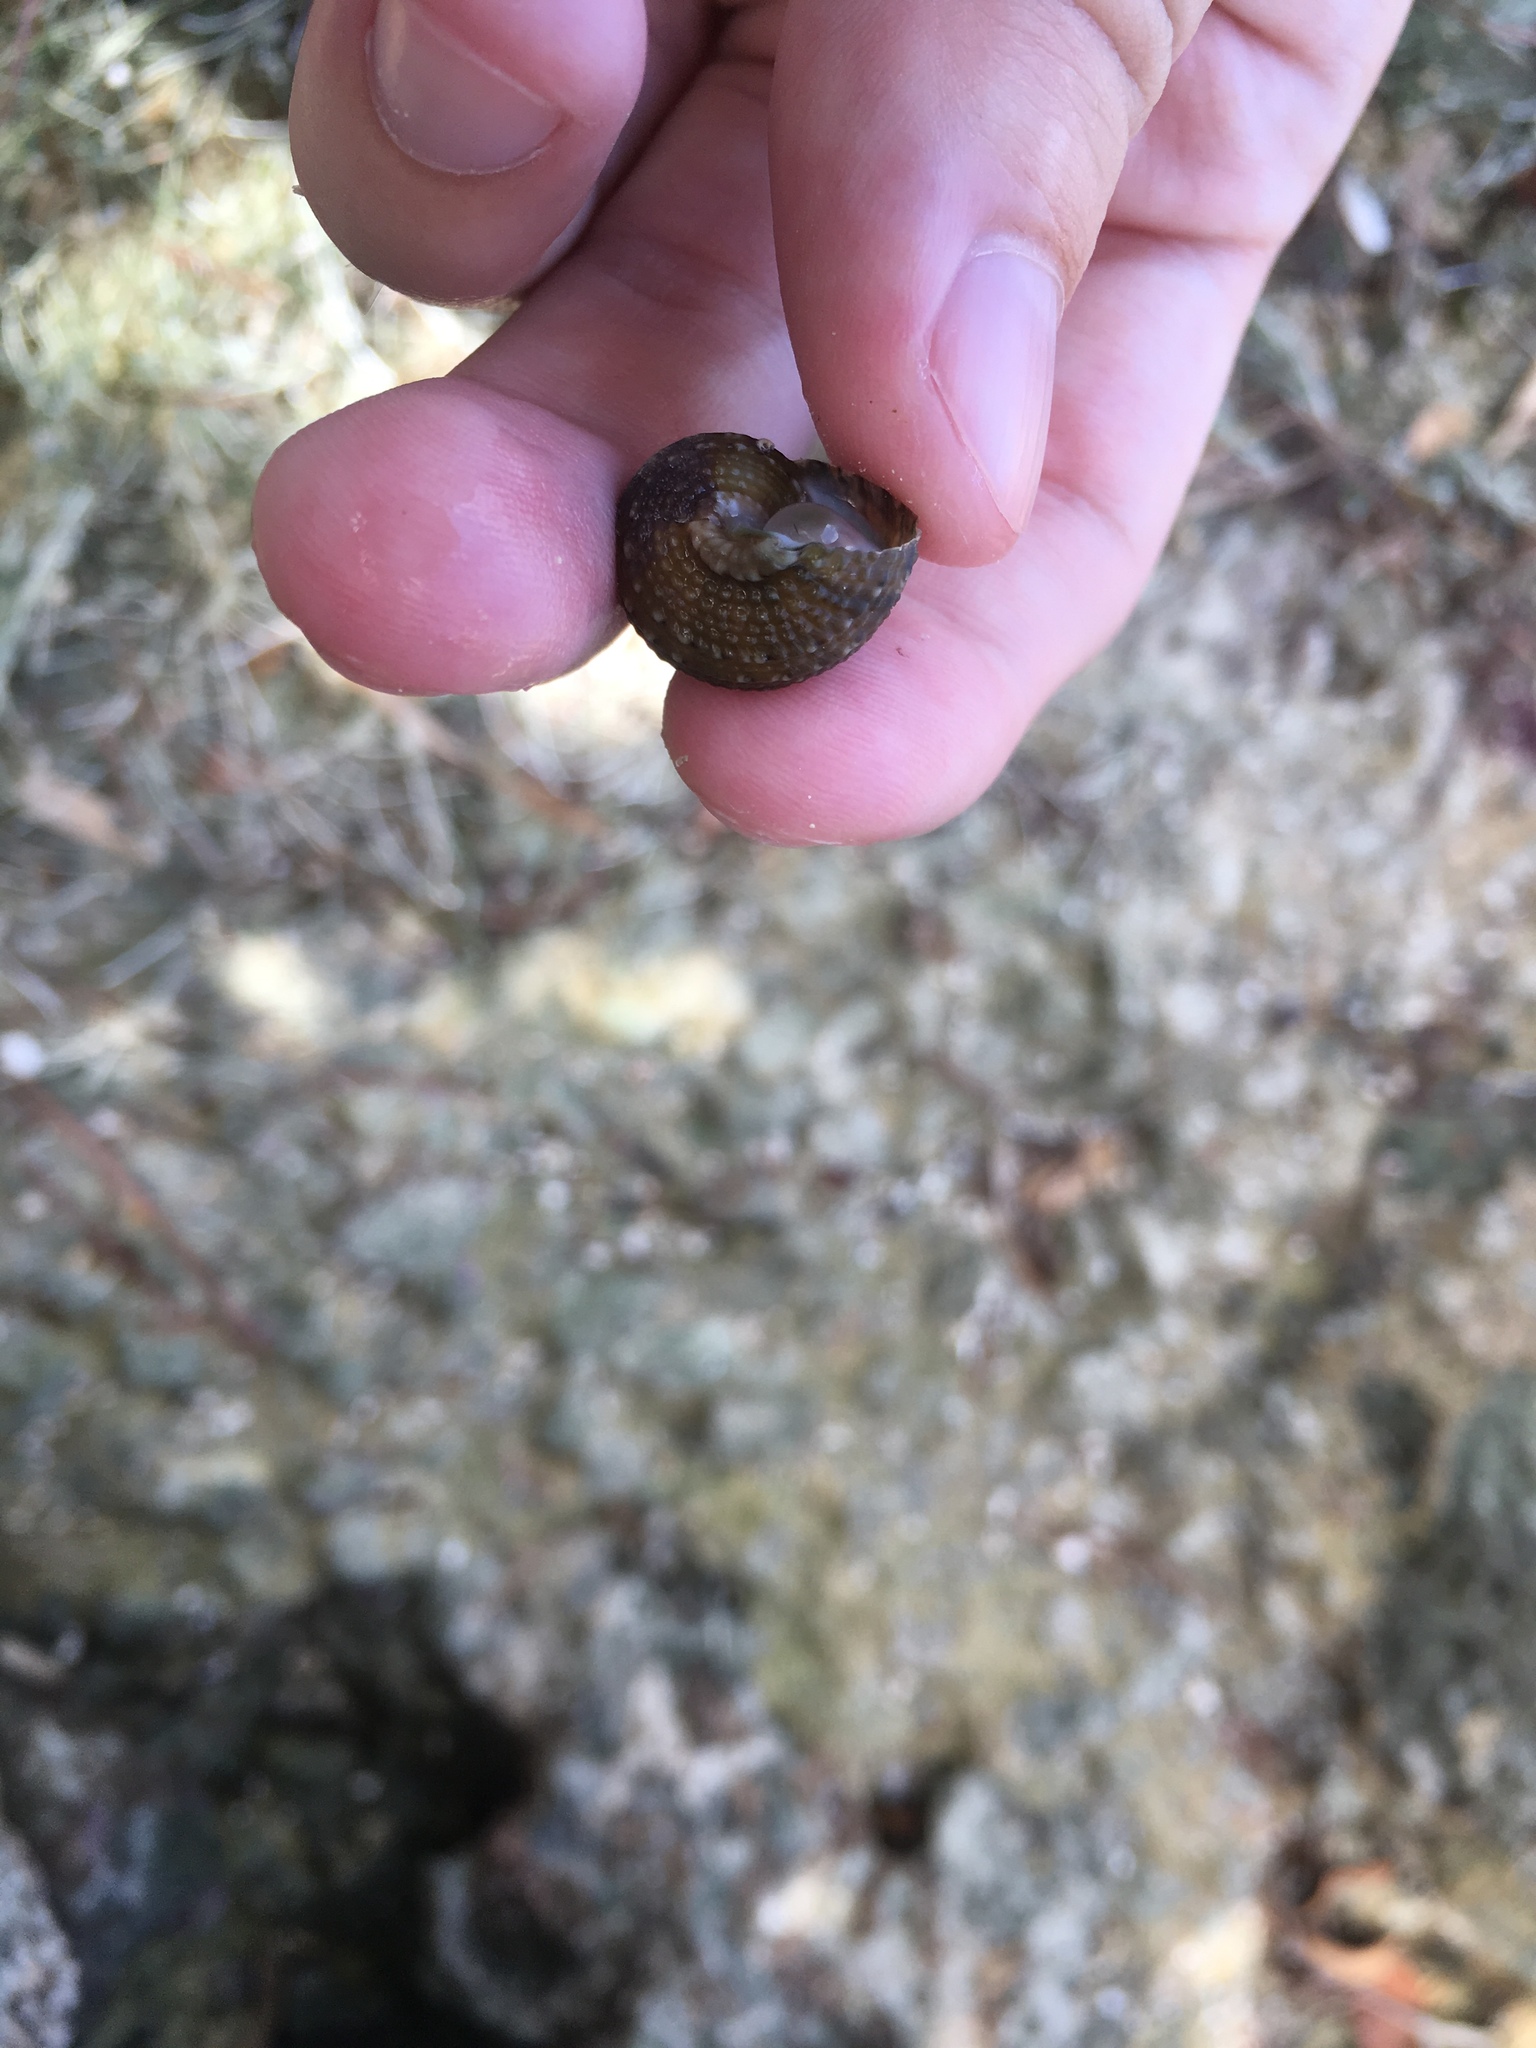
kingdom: Animalia
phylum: Mollusca
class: Gastropoda
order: Trochida
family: Turbinidae
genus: Turbo
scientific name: Turbo castanea
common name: Chestnut turban
